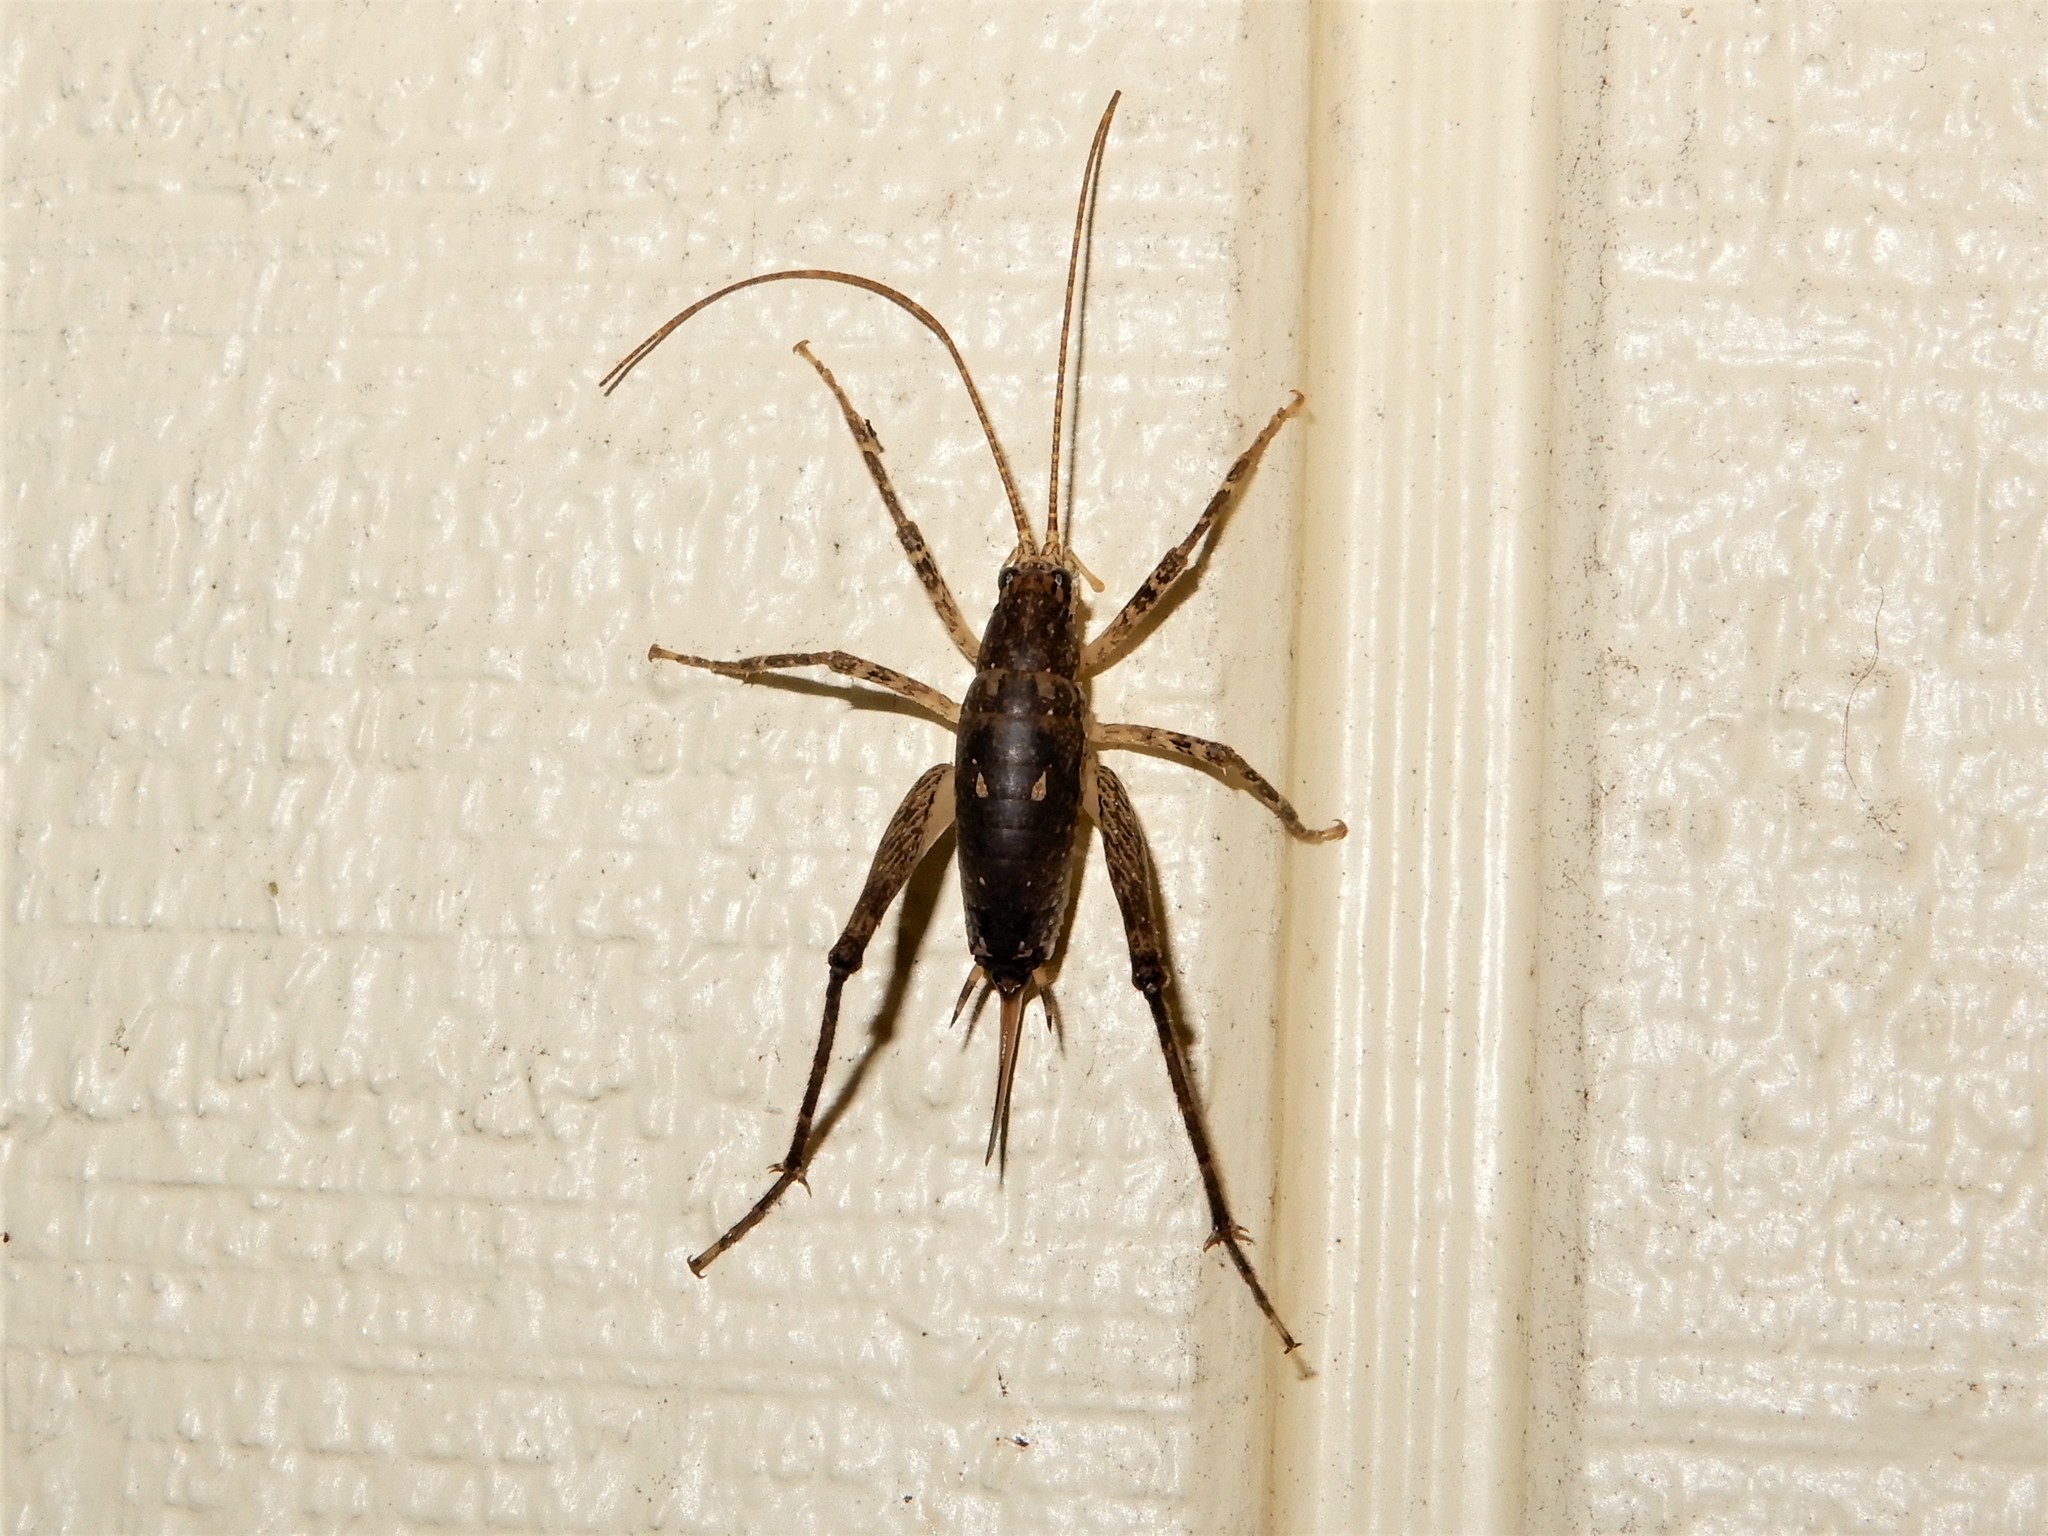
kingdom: Animalia
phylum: Arthropoda
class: Insecta
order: Orthoptera
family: Rhaphidophoridae
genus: Isoplectron
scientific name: Isoplectron armatum
